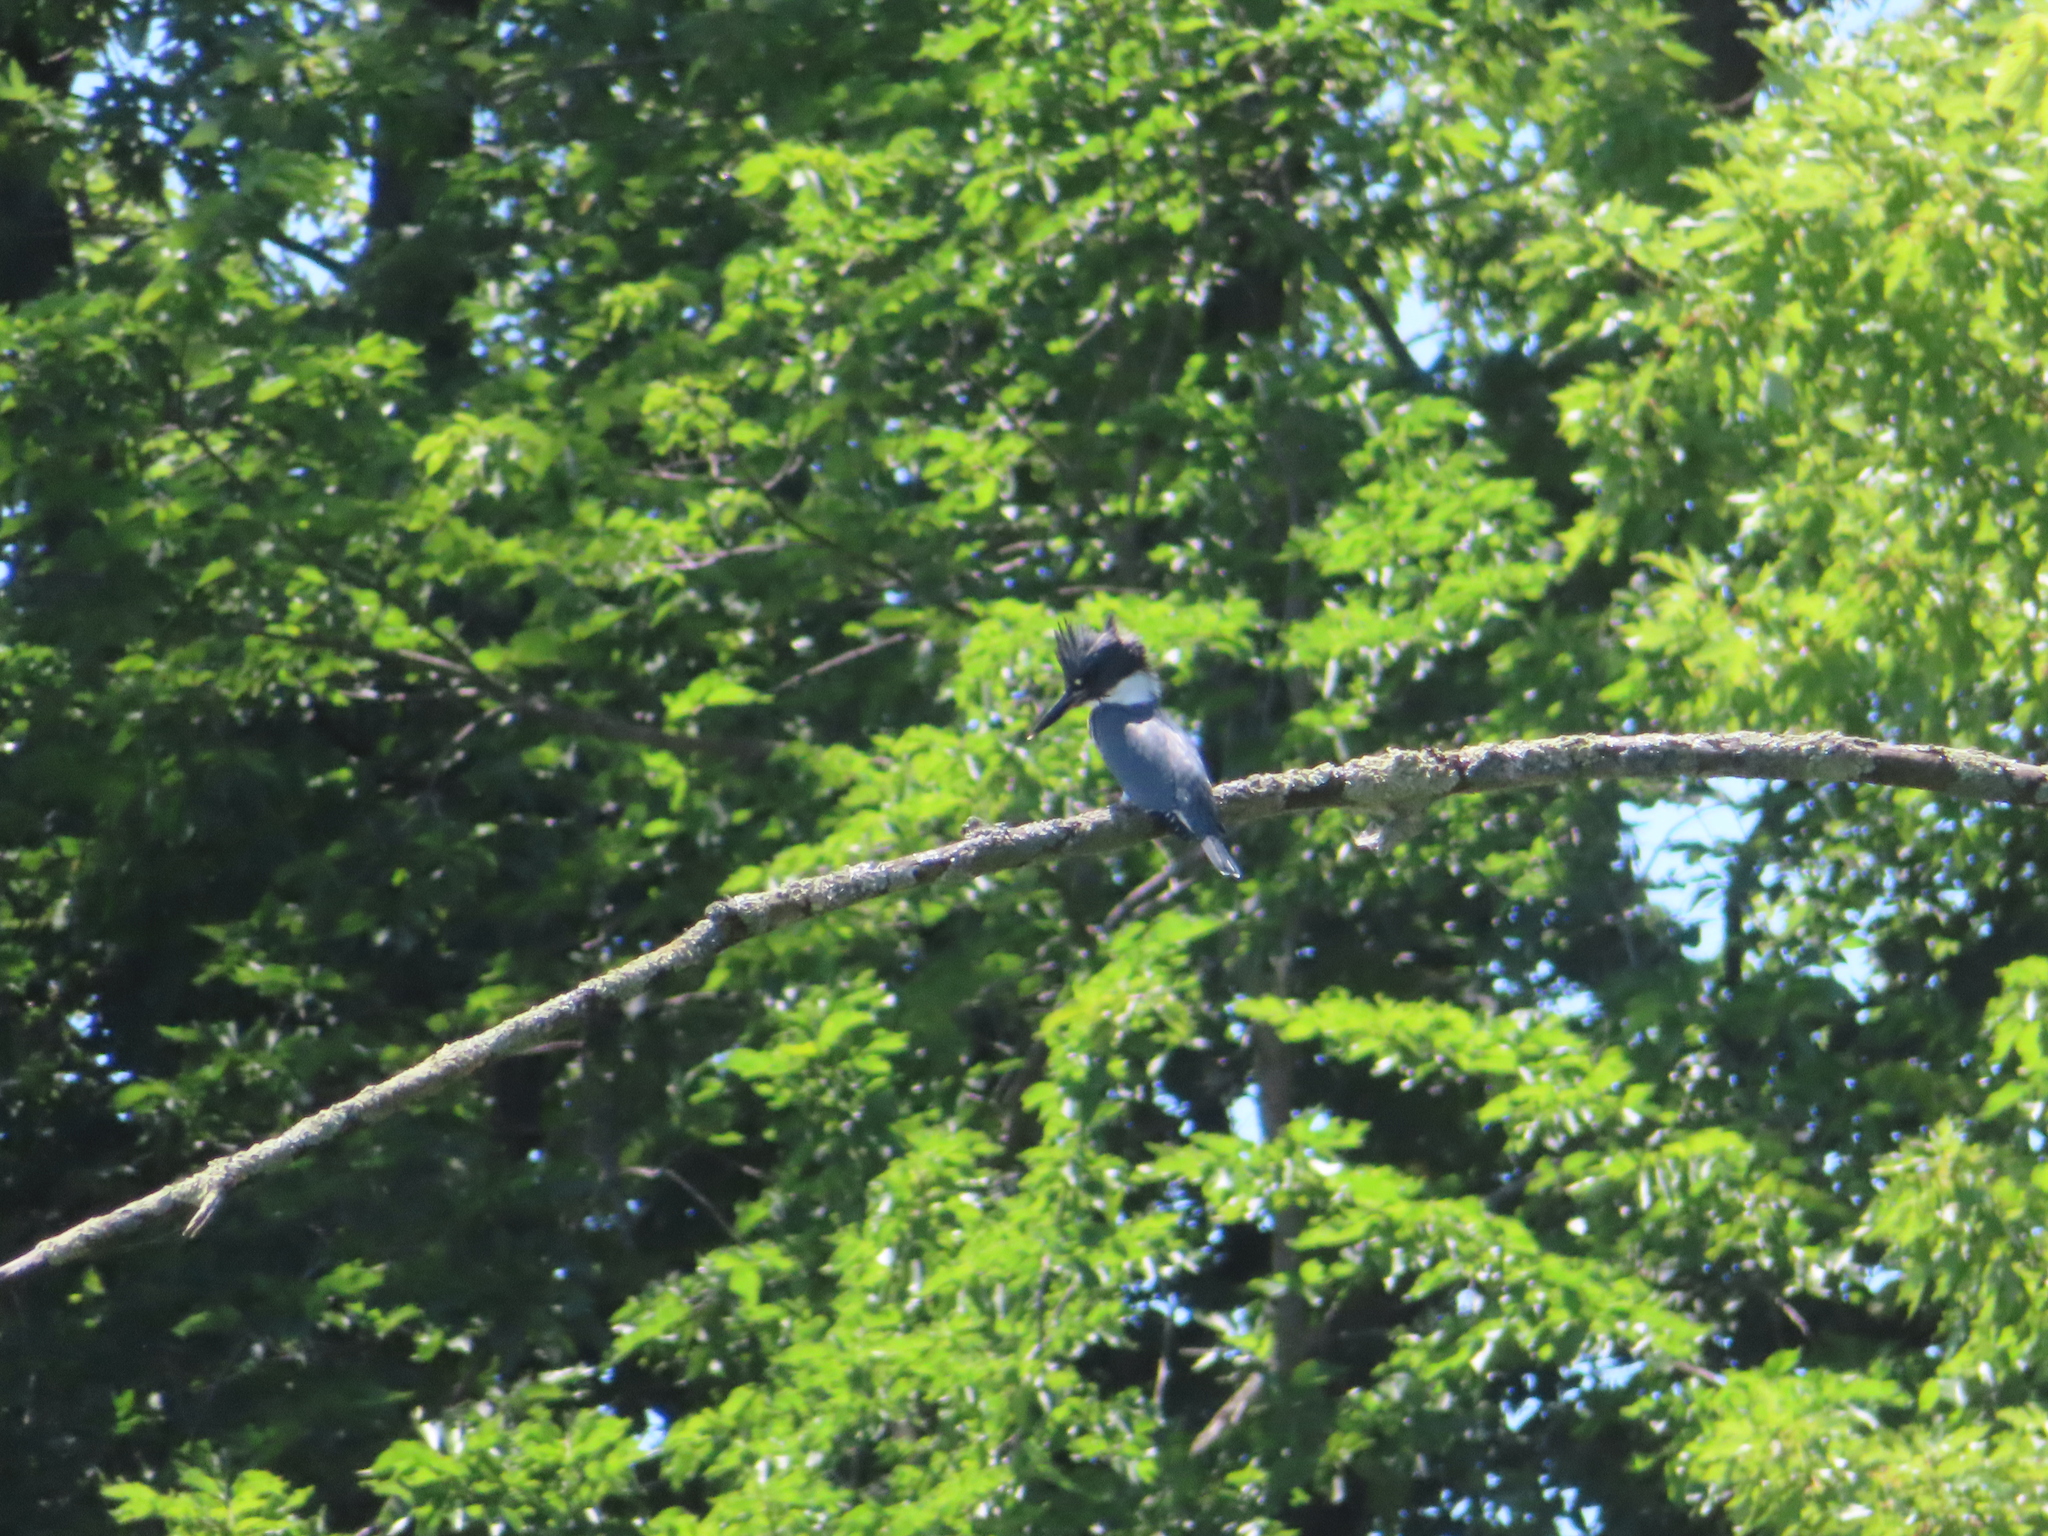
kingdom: Animalia
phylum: Chordata
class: Aves
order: Coraciiformes
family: Alcedinidae
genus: Megaceryle
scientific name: Megaceryle alcyon
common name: Belted kingfisher
